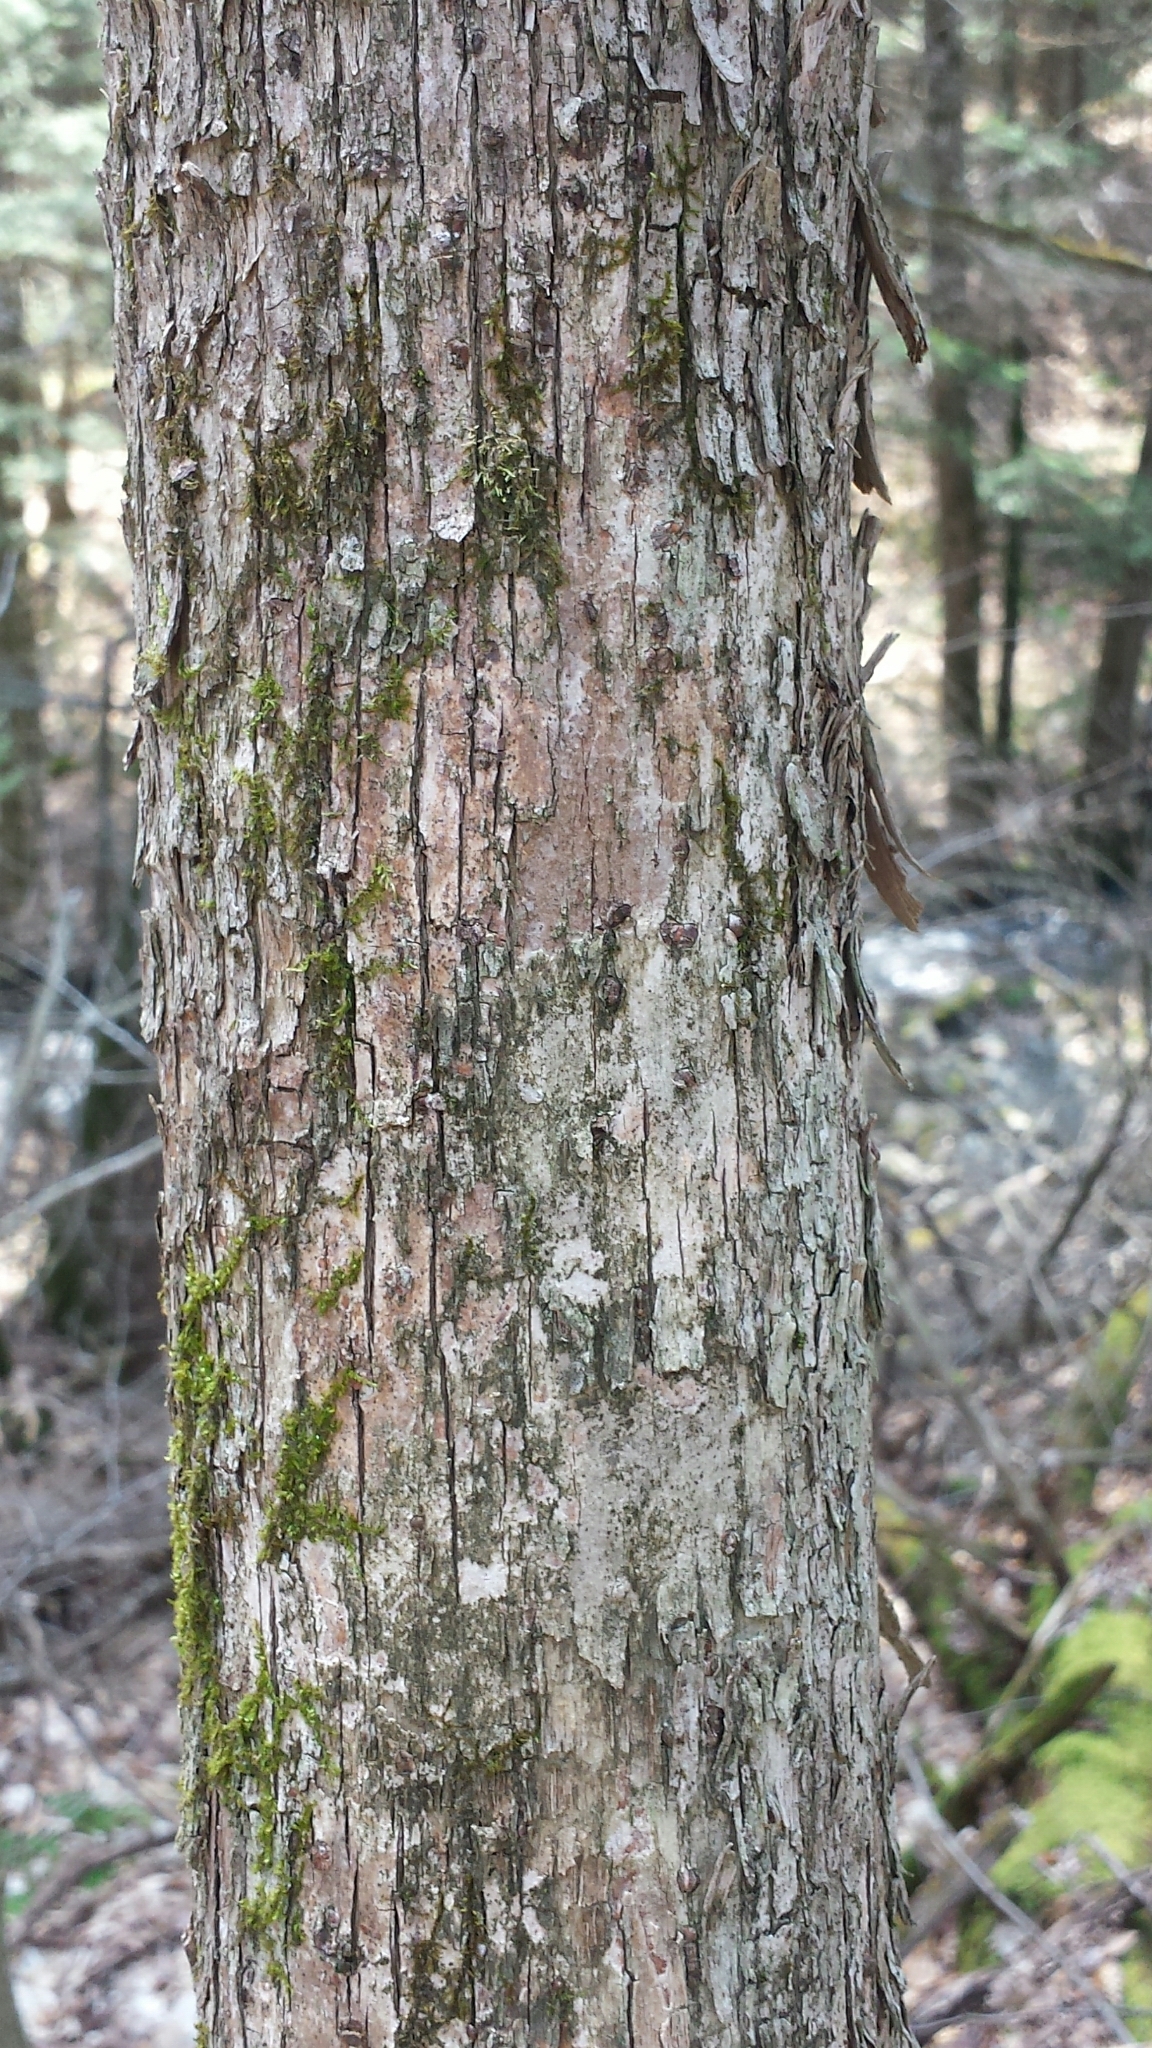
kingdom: Plantae
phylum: Tracheophyta
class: Magnoliopsida
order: Fagales
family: Betulaceae
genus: Ostrya
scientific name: Ostrya virginiana
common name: Ironwood
